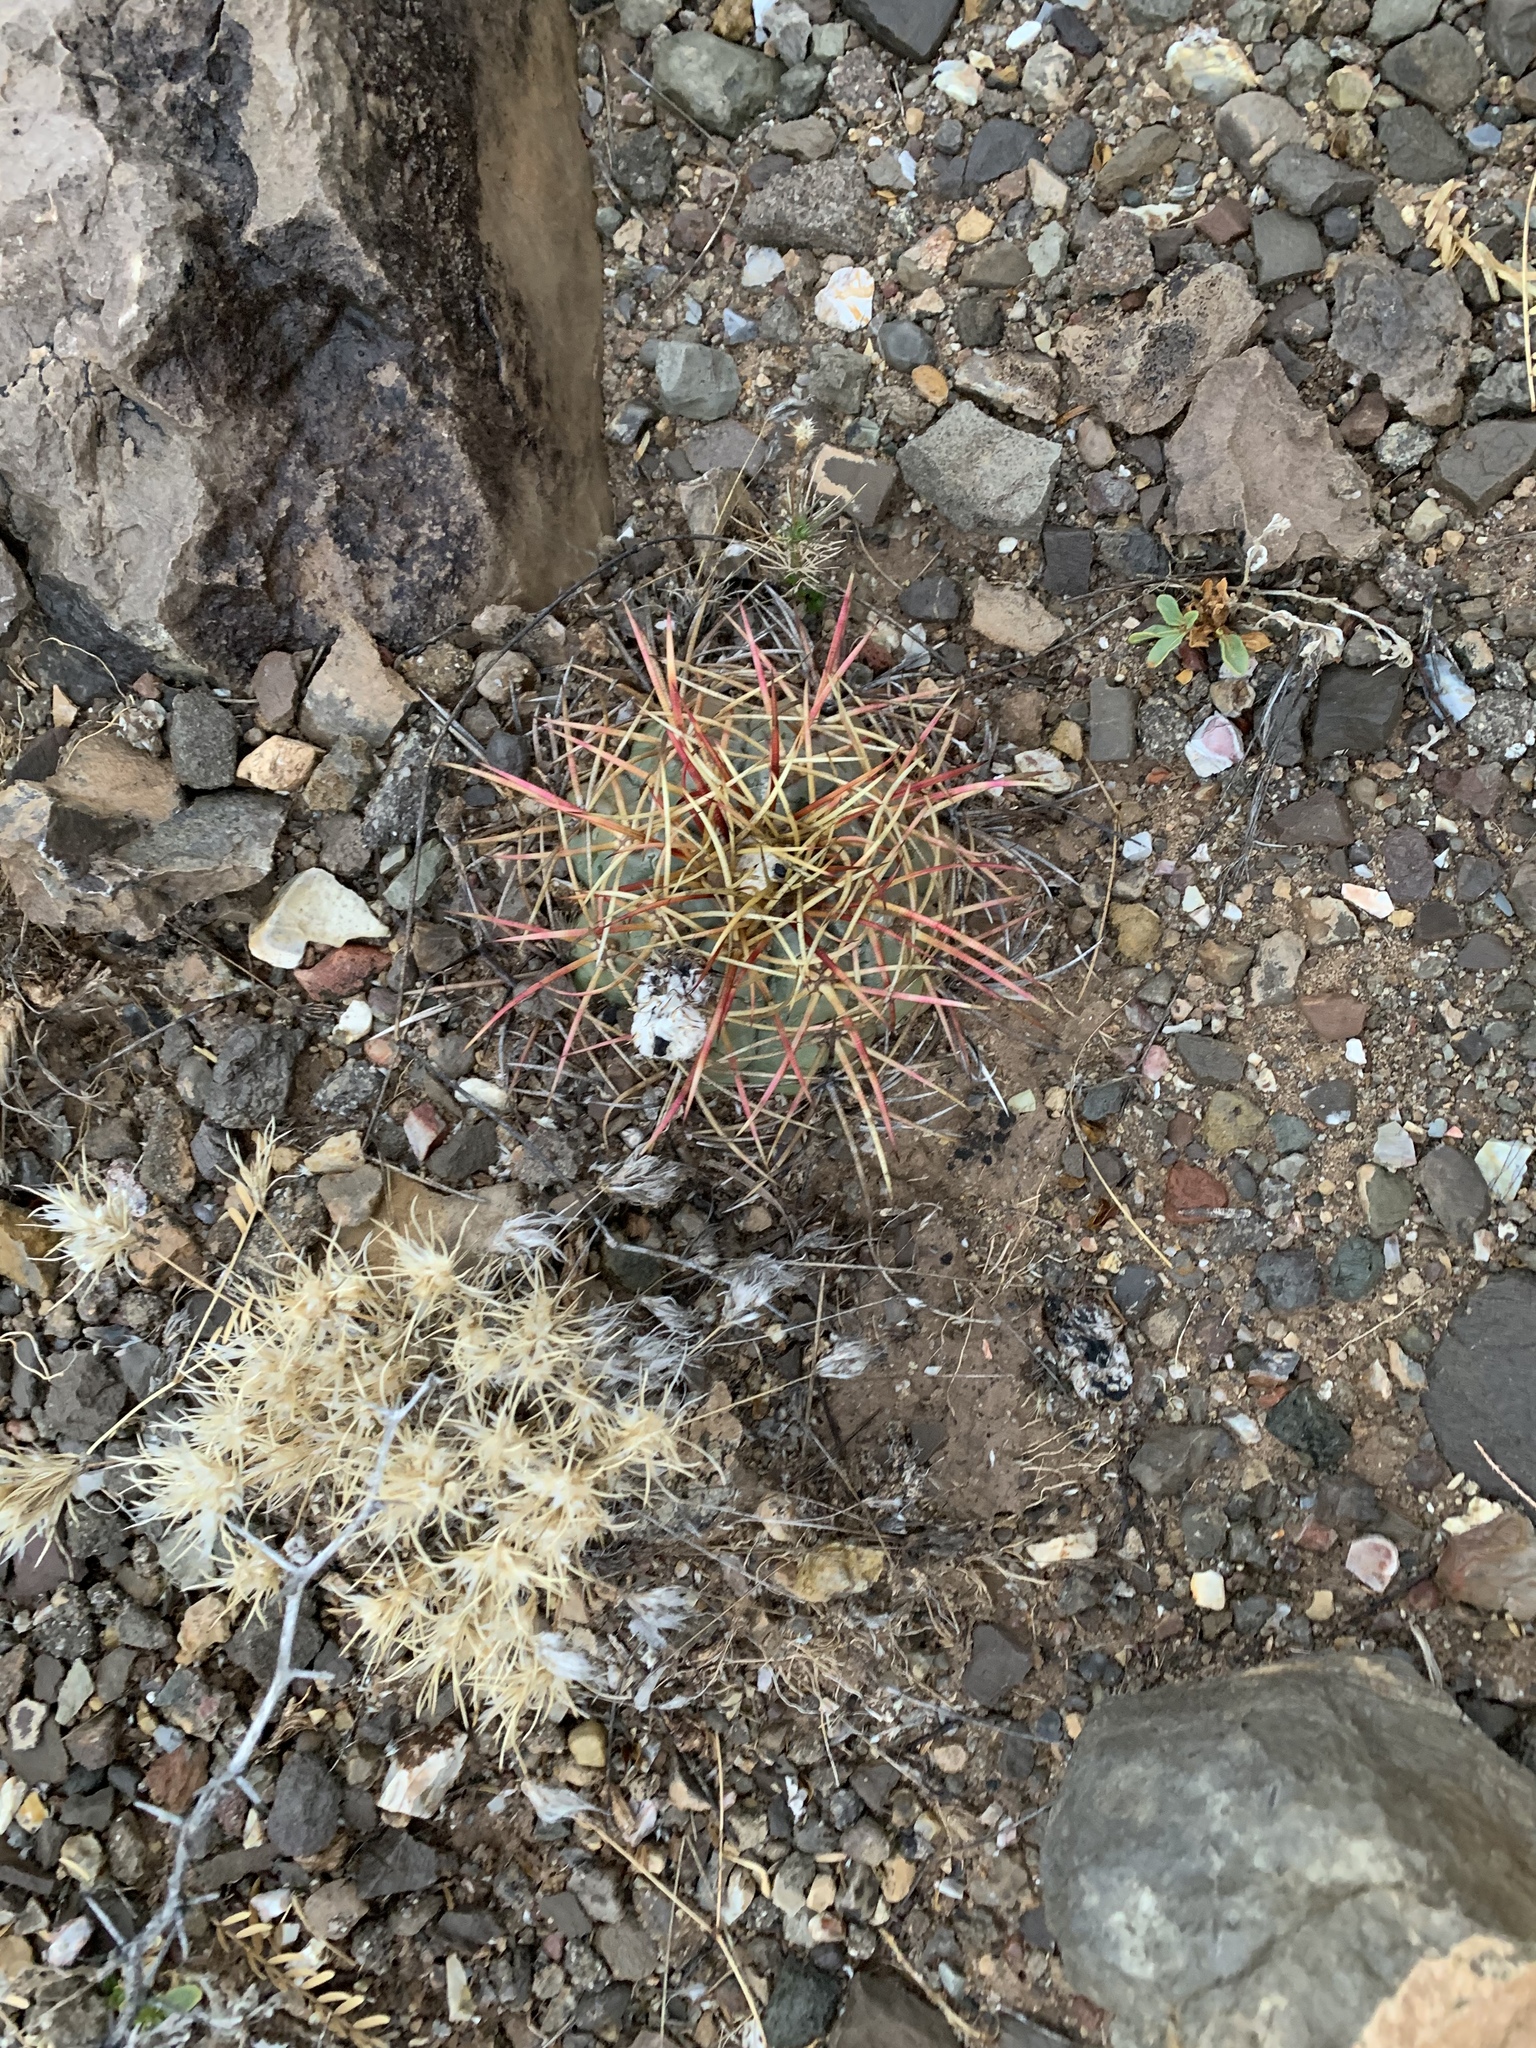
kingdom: Plantae
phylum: Tracheophyta
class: Magnoliopsida
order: Caryophyllales
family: Cactaceae
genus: Echinocactus
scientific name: Echinocactus horizonthalonius
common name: Devilshead
